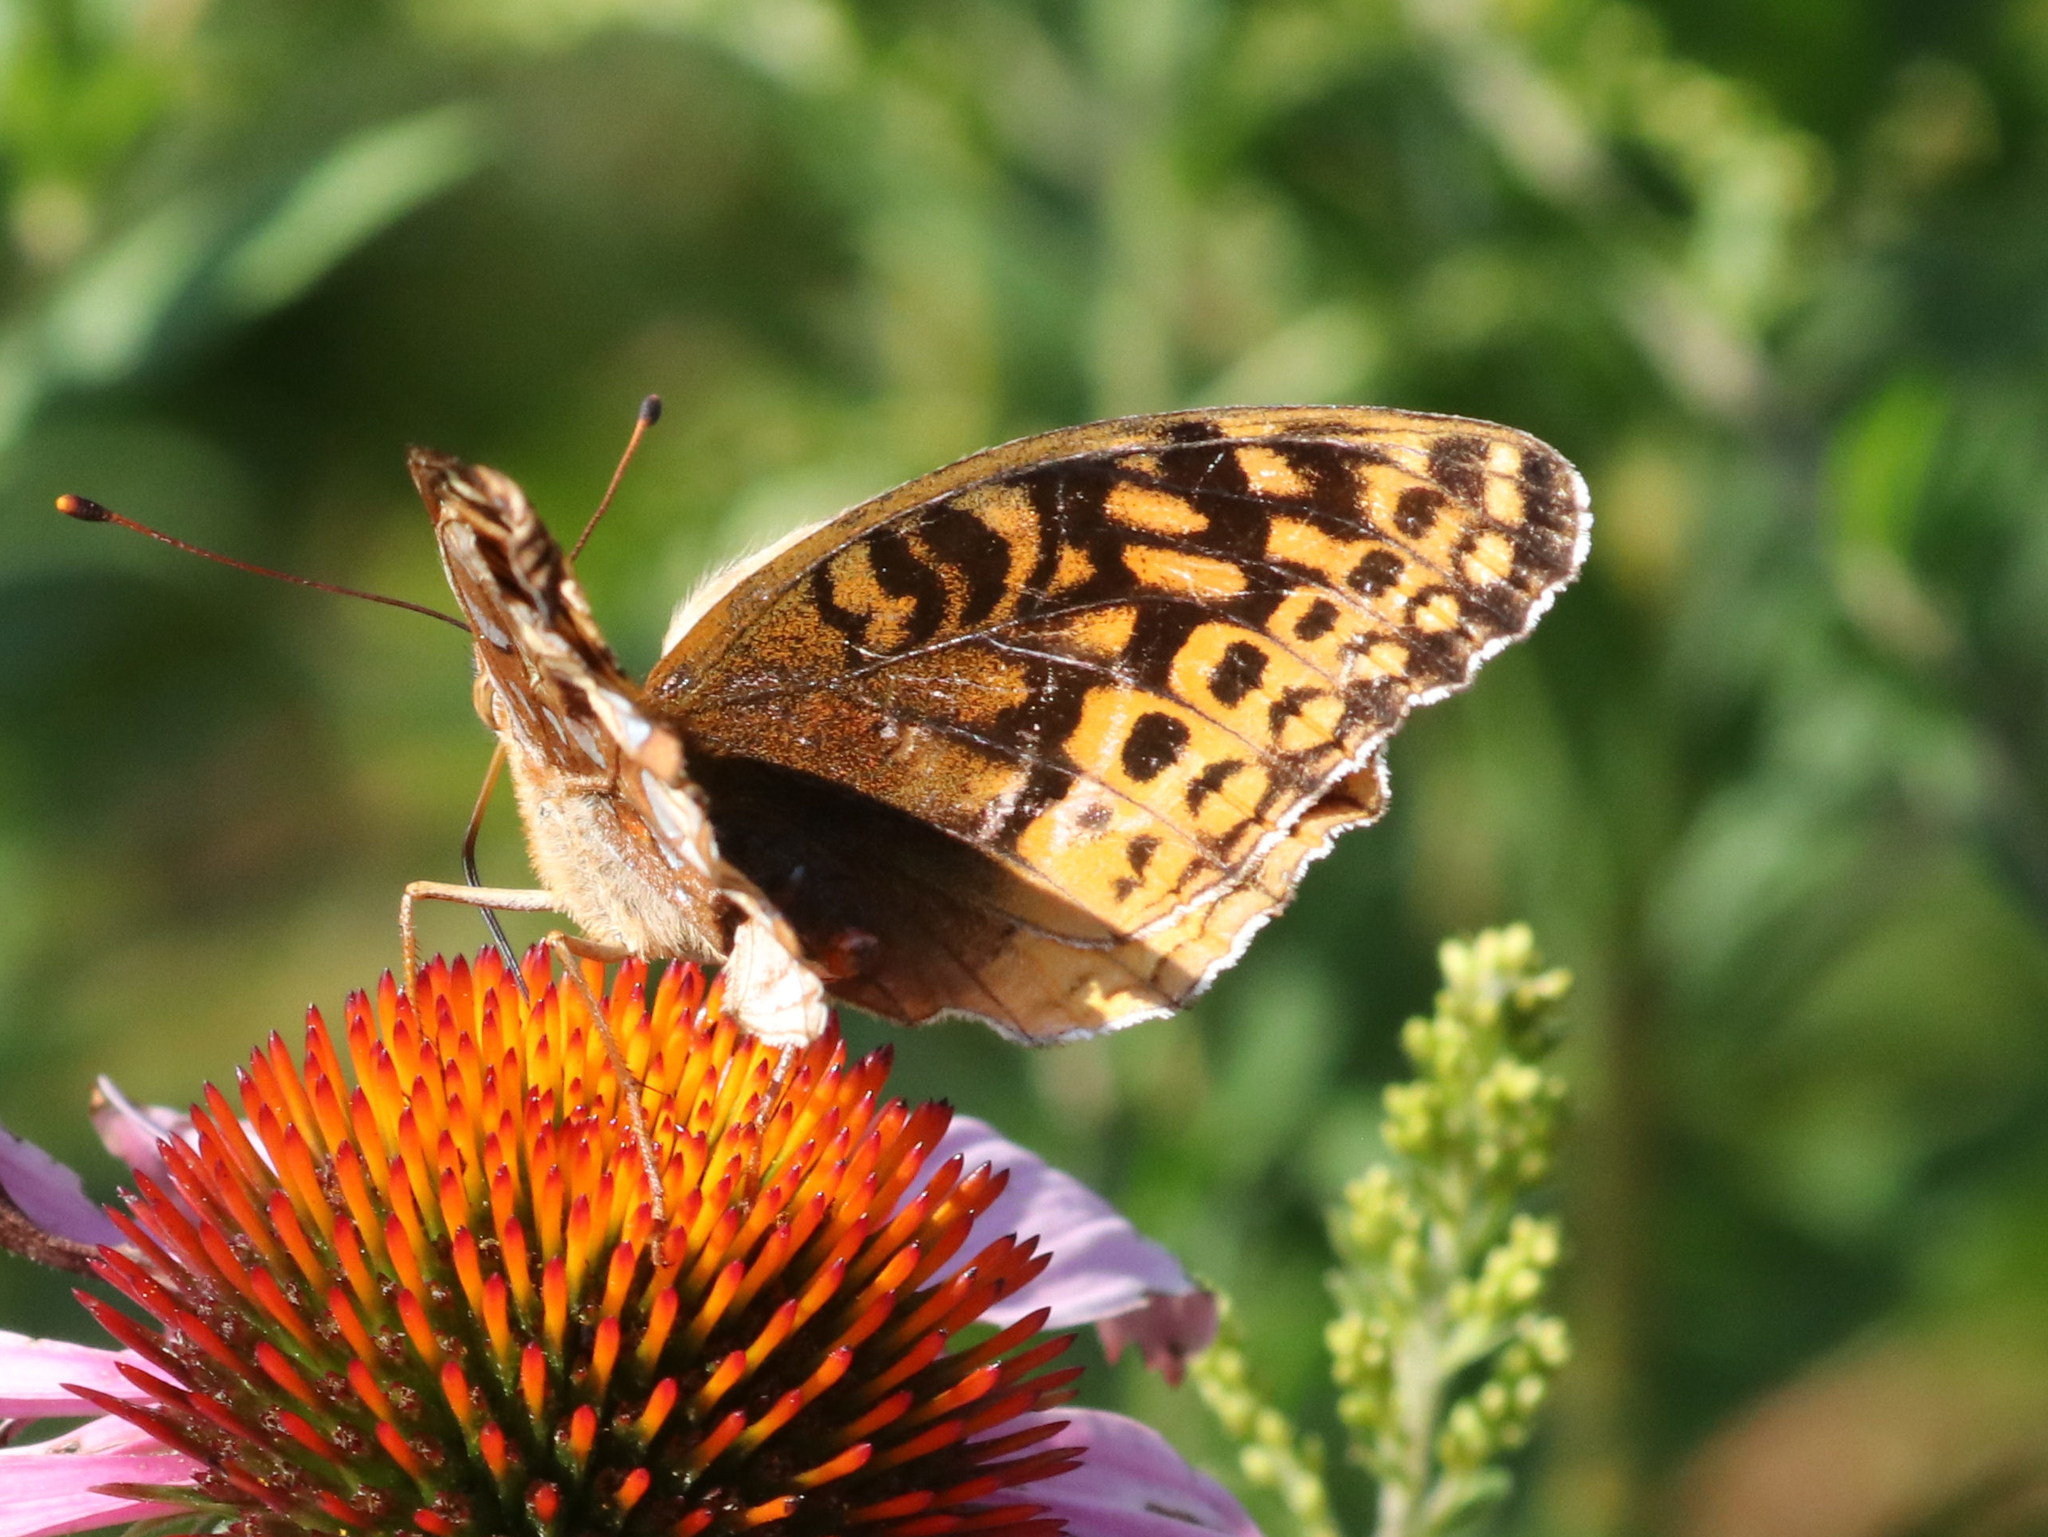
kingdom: Animalia
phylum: Arthropoda
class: Insecta
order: Lepidoptera
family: Nymphalidae
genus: Speyeria
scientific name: Speyeria cybele
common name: Great spangled fritillary
